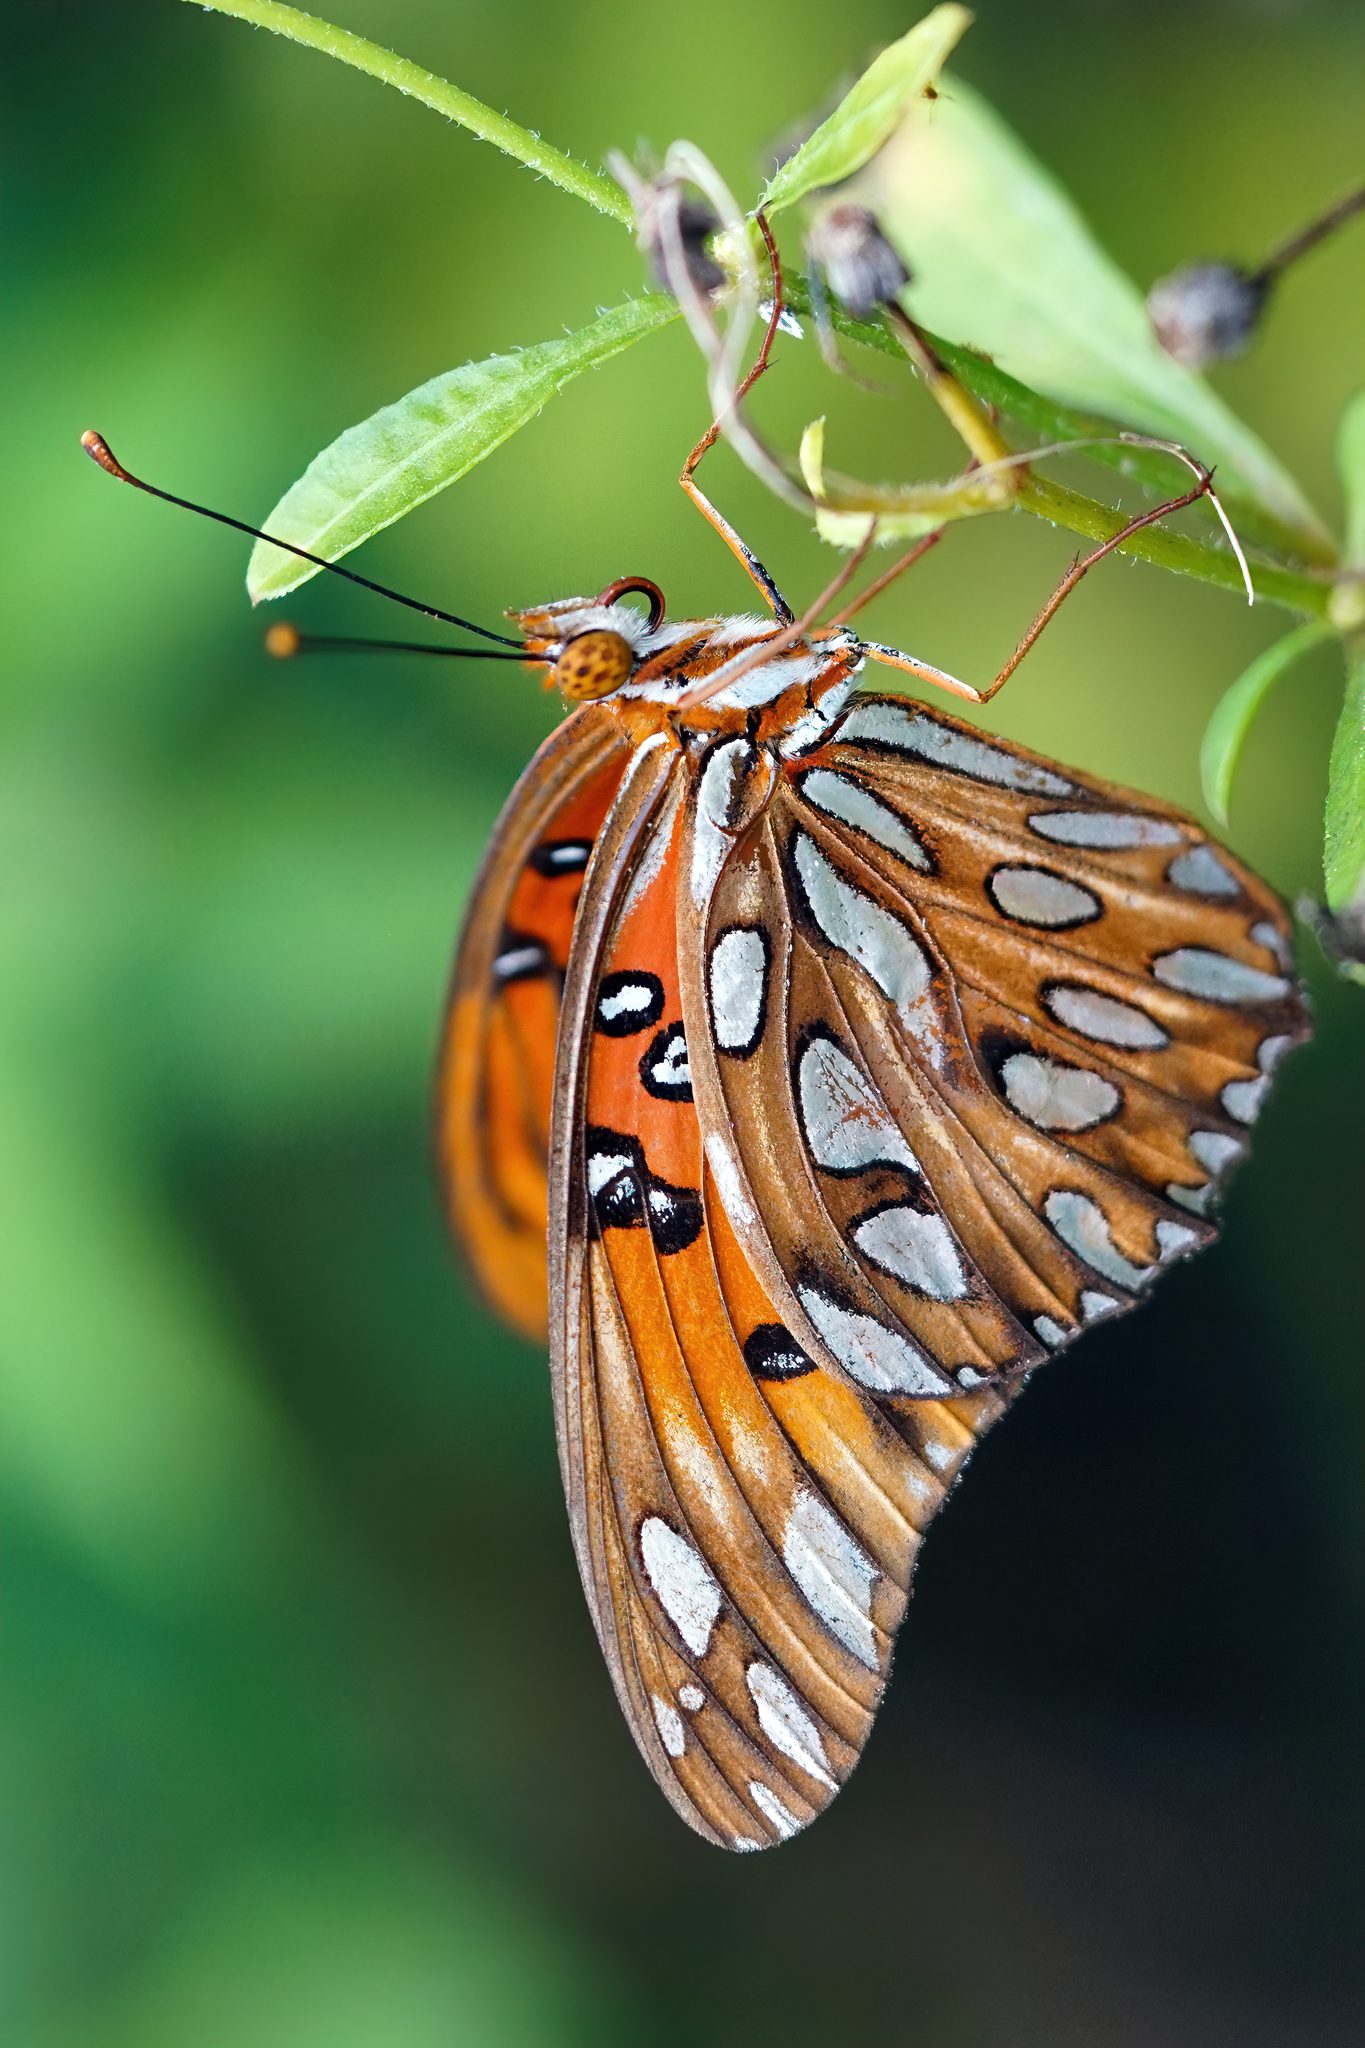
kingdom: Animalia
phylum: Arthropoda
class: Insecta
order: Lepidoptera
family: Nymphalidae
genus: Dione
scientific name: Dione vanillae
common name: Gulf fritillary
